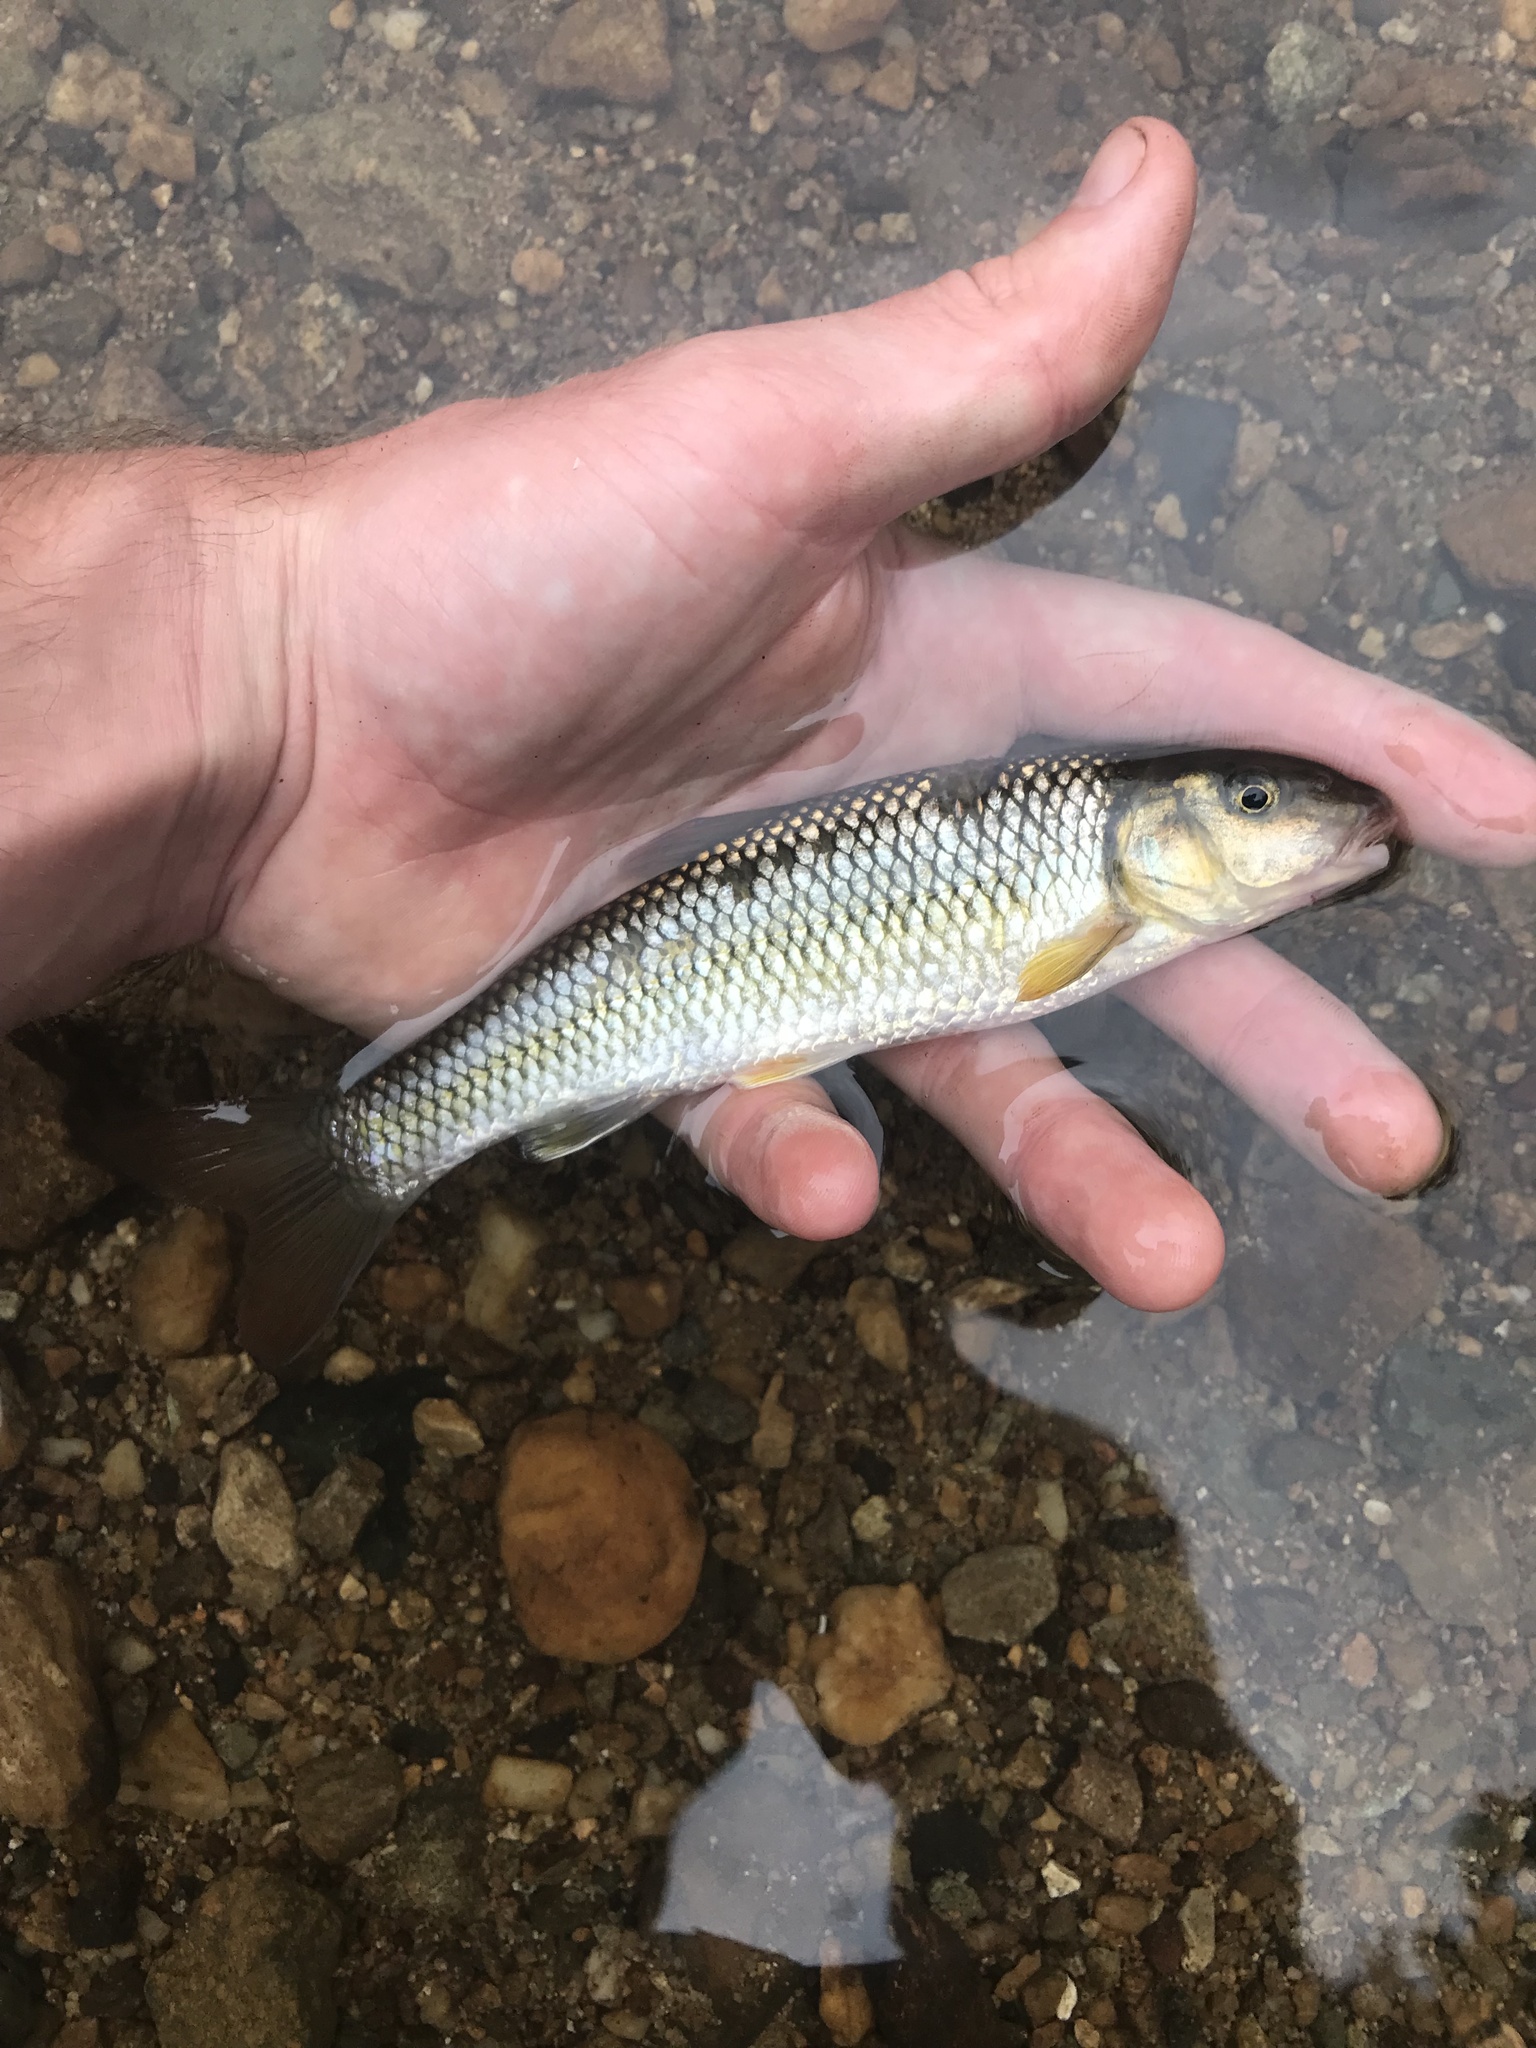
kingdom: Animalia
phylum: Chordata
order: Cypriniformes
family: Cyprinidae
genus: Nocomis
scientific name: Nocomis raneyi
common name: Bull chub
